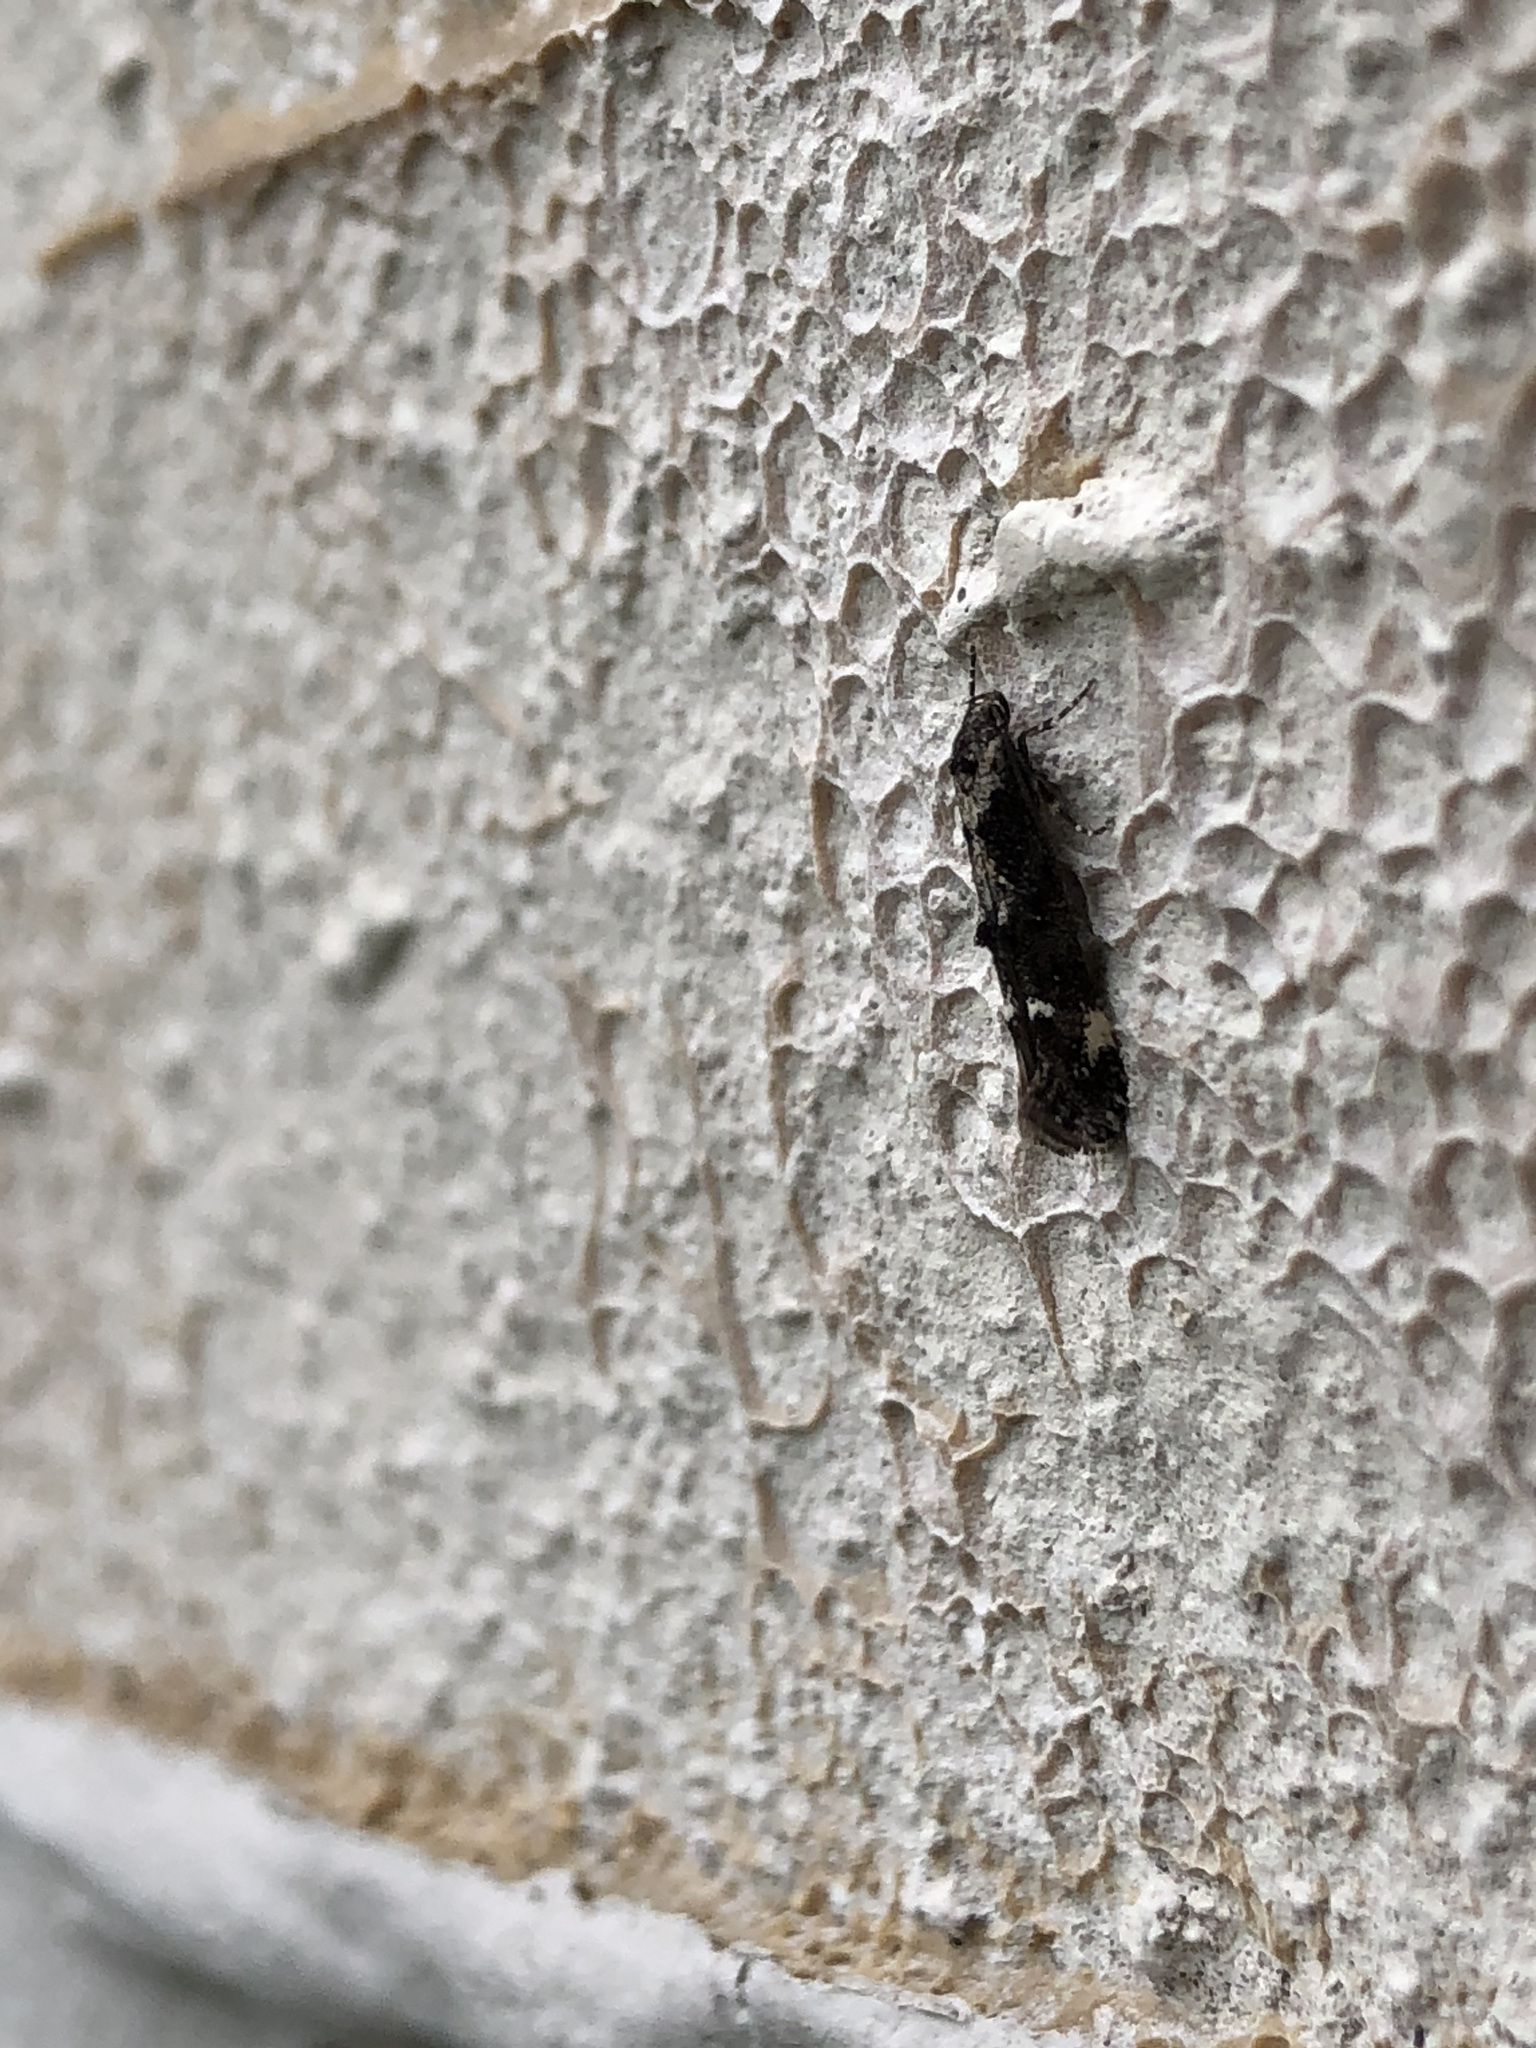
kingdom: Animalia
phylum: Arthropoda
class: Insecta
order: Lepidoptera
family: Momphidae
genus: Mompha
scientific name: Mompha albapalpella
